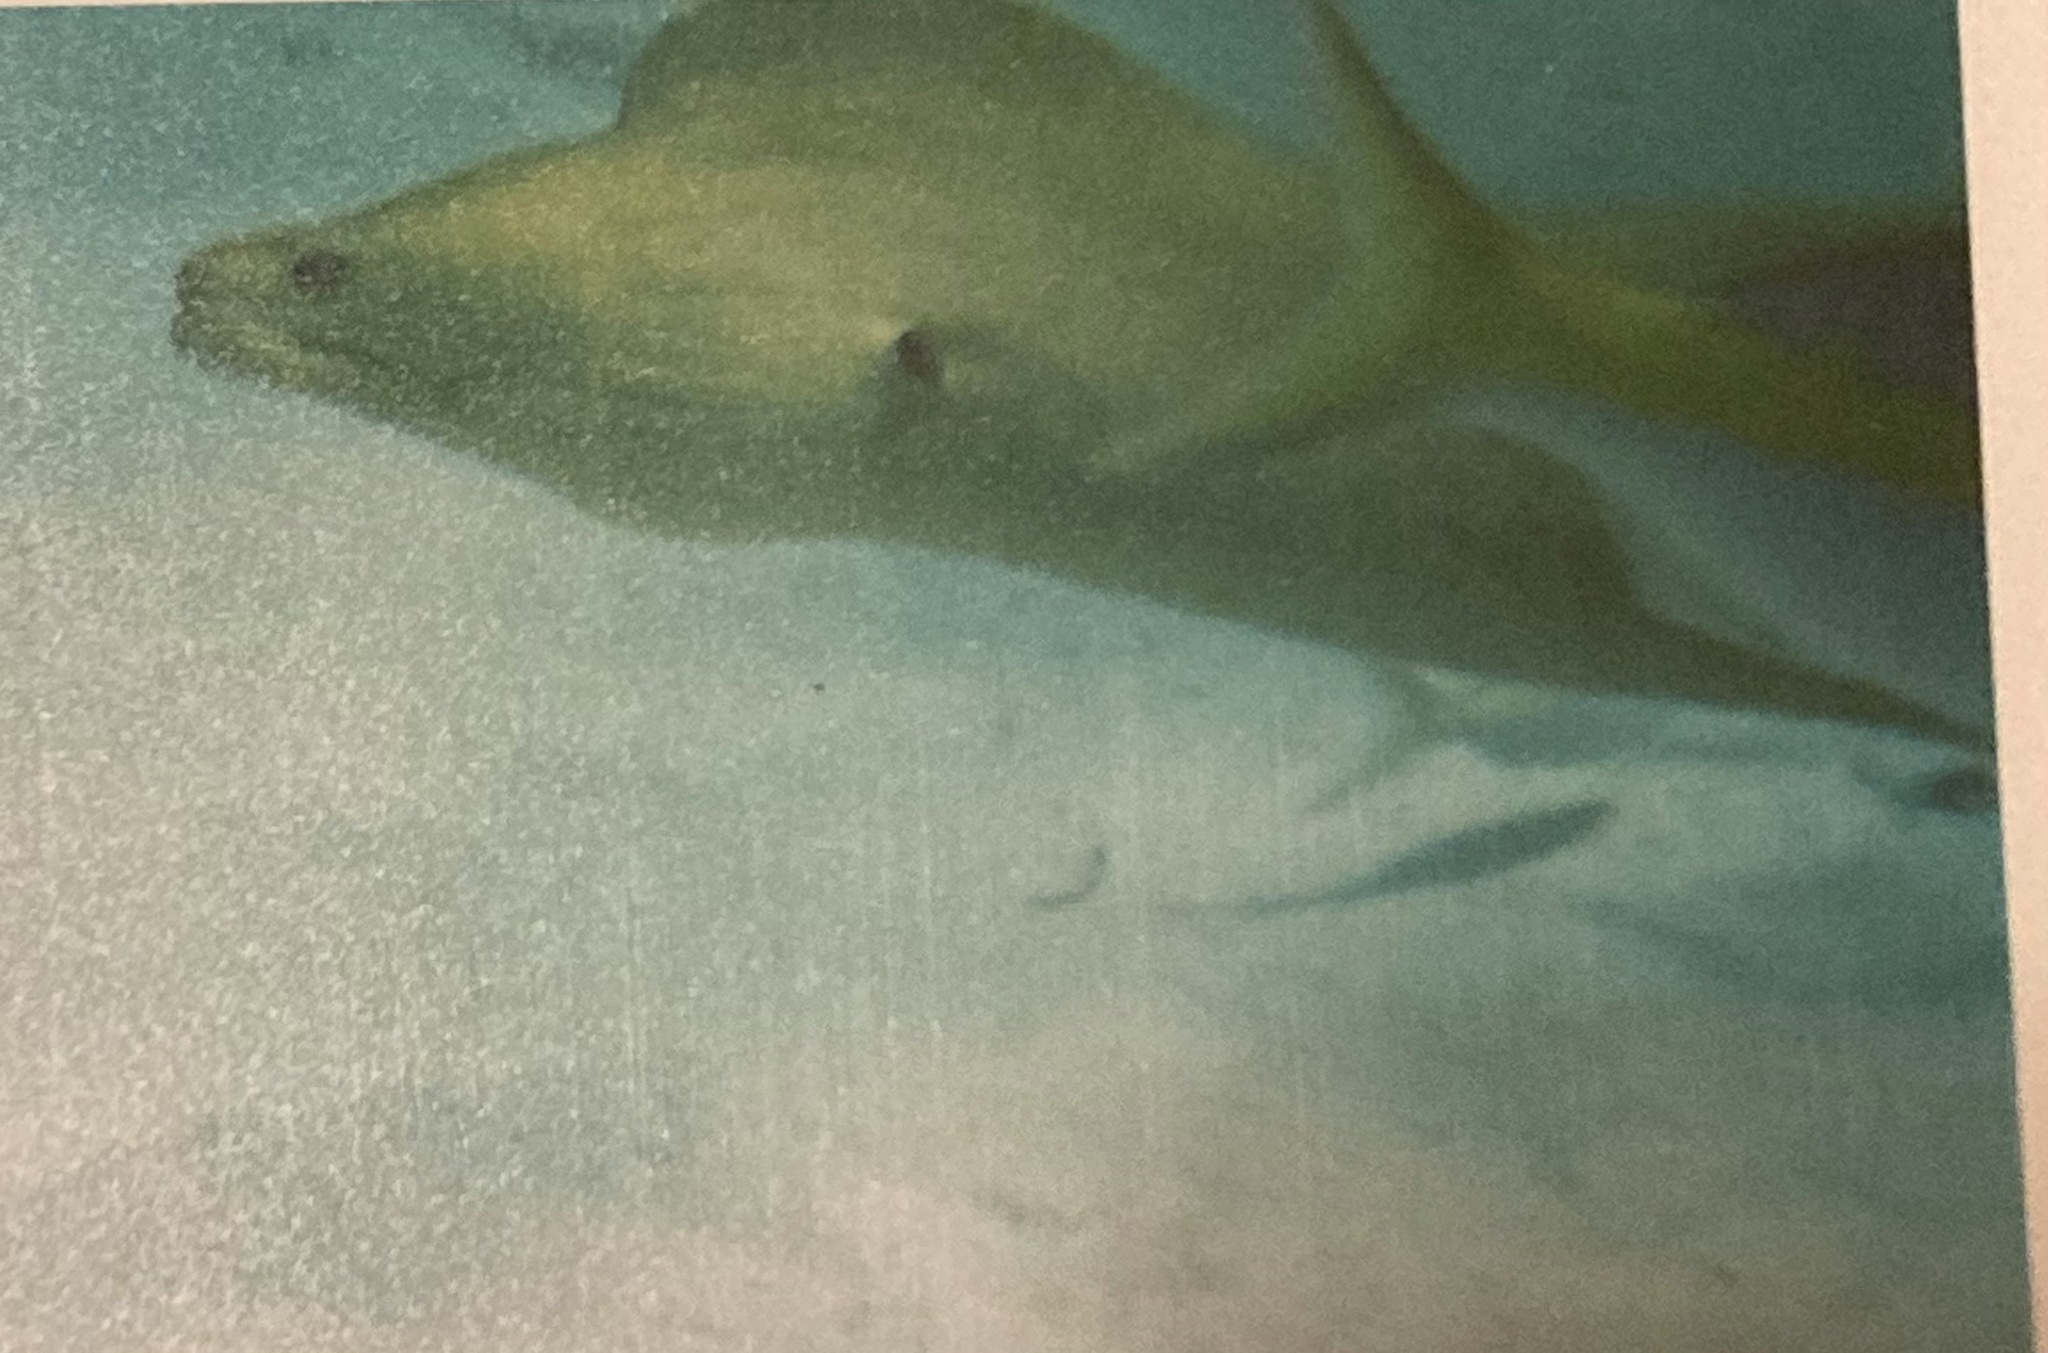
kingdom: Animalia
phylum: Chordata
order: Anguilliformes
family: Muraenidae
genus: Gymnothorax
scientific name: Gymnothorax funebris
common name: Green moray
